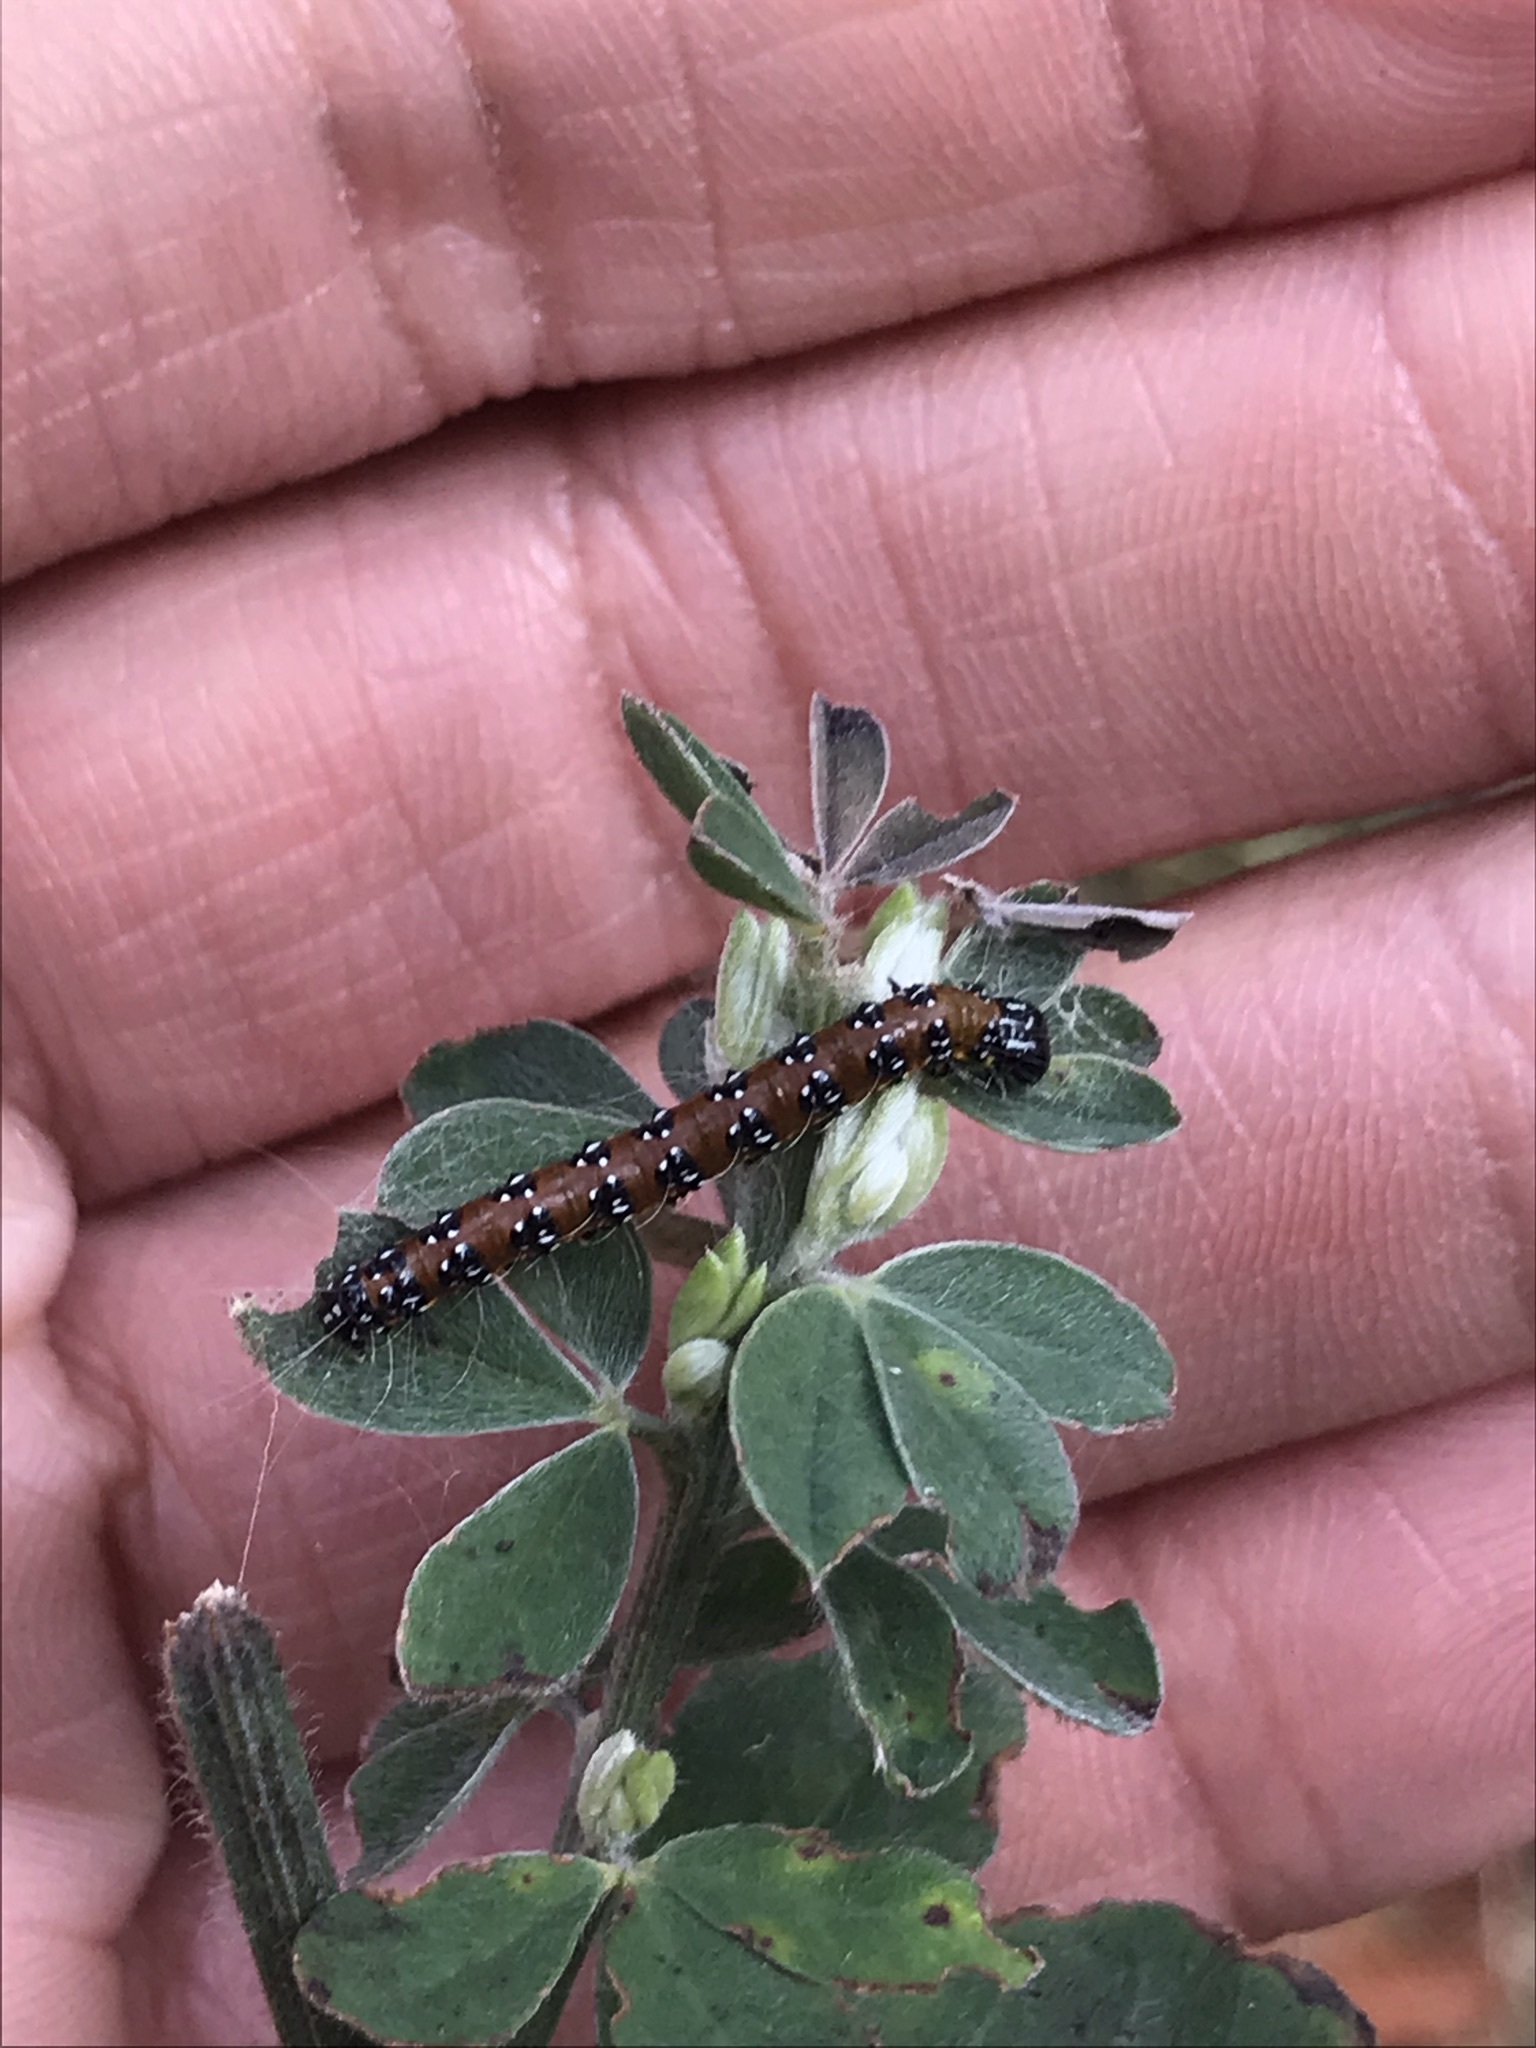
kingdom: Animalia
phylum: Arthropoda
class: Insecta
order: Lepidoptera
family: Crambidae
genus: Uresiphita
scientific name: Uresiphita reversalis
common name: Genista broom moth
